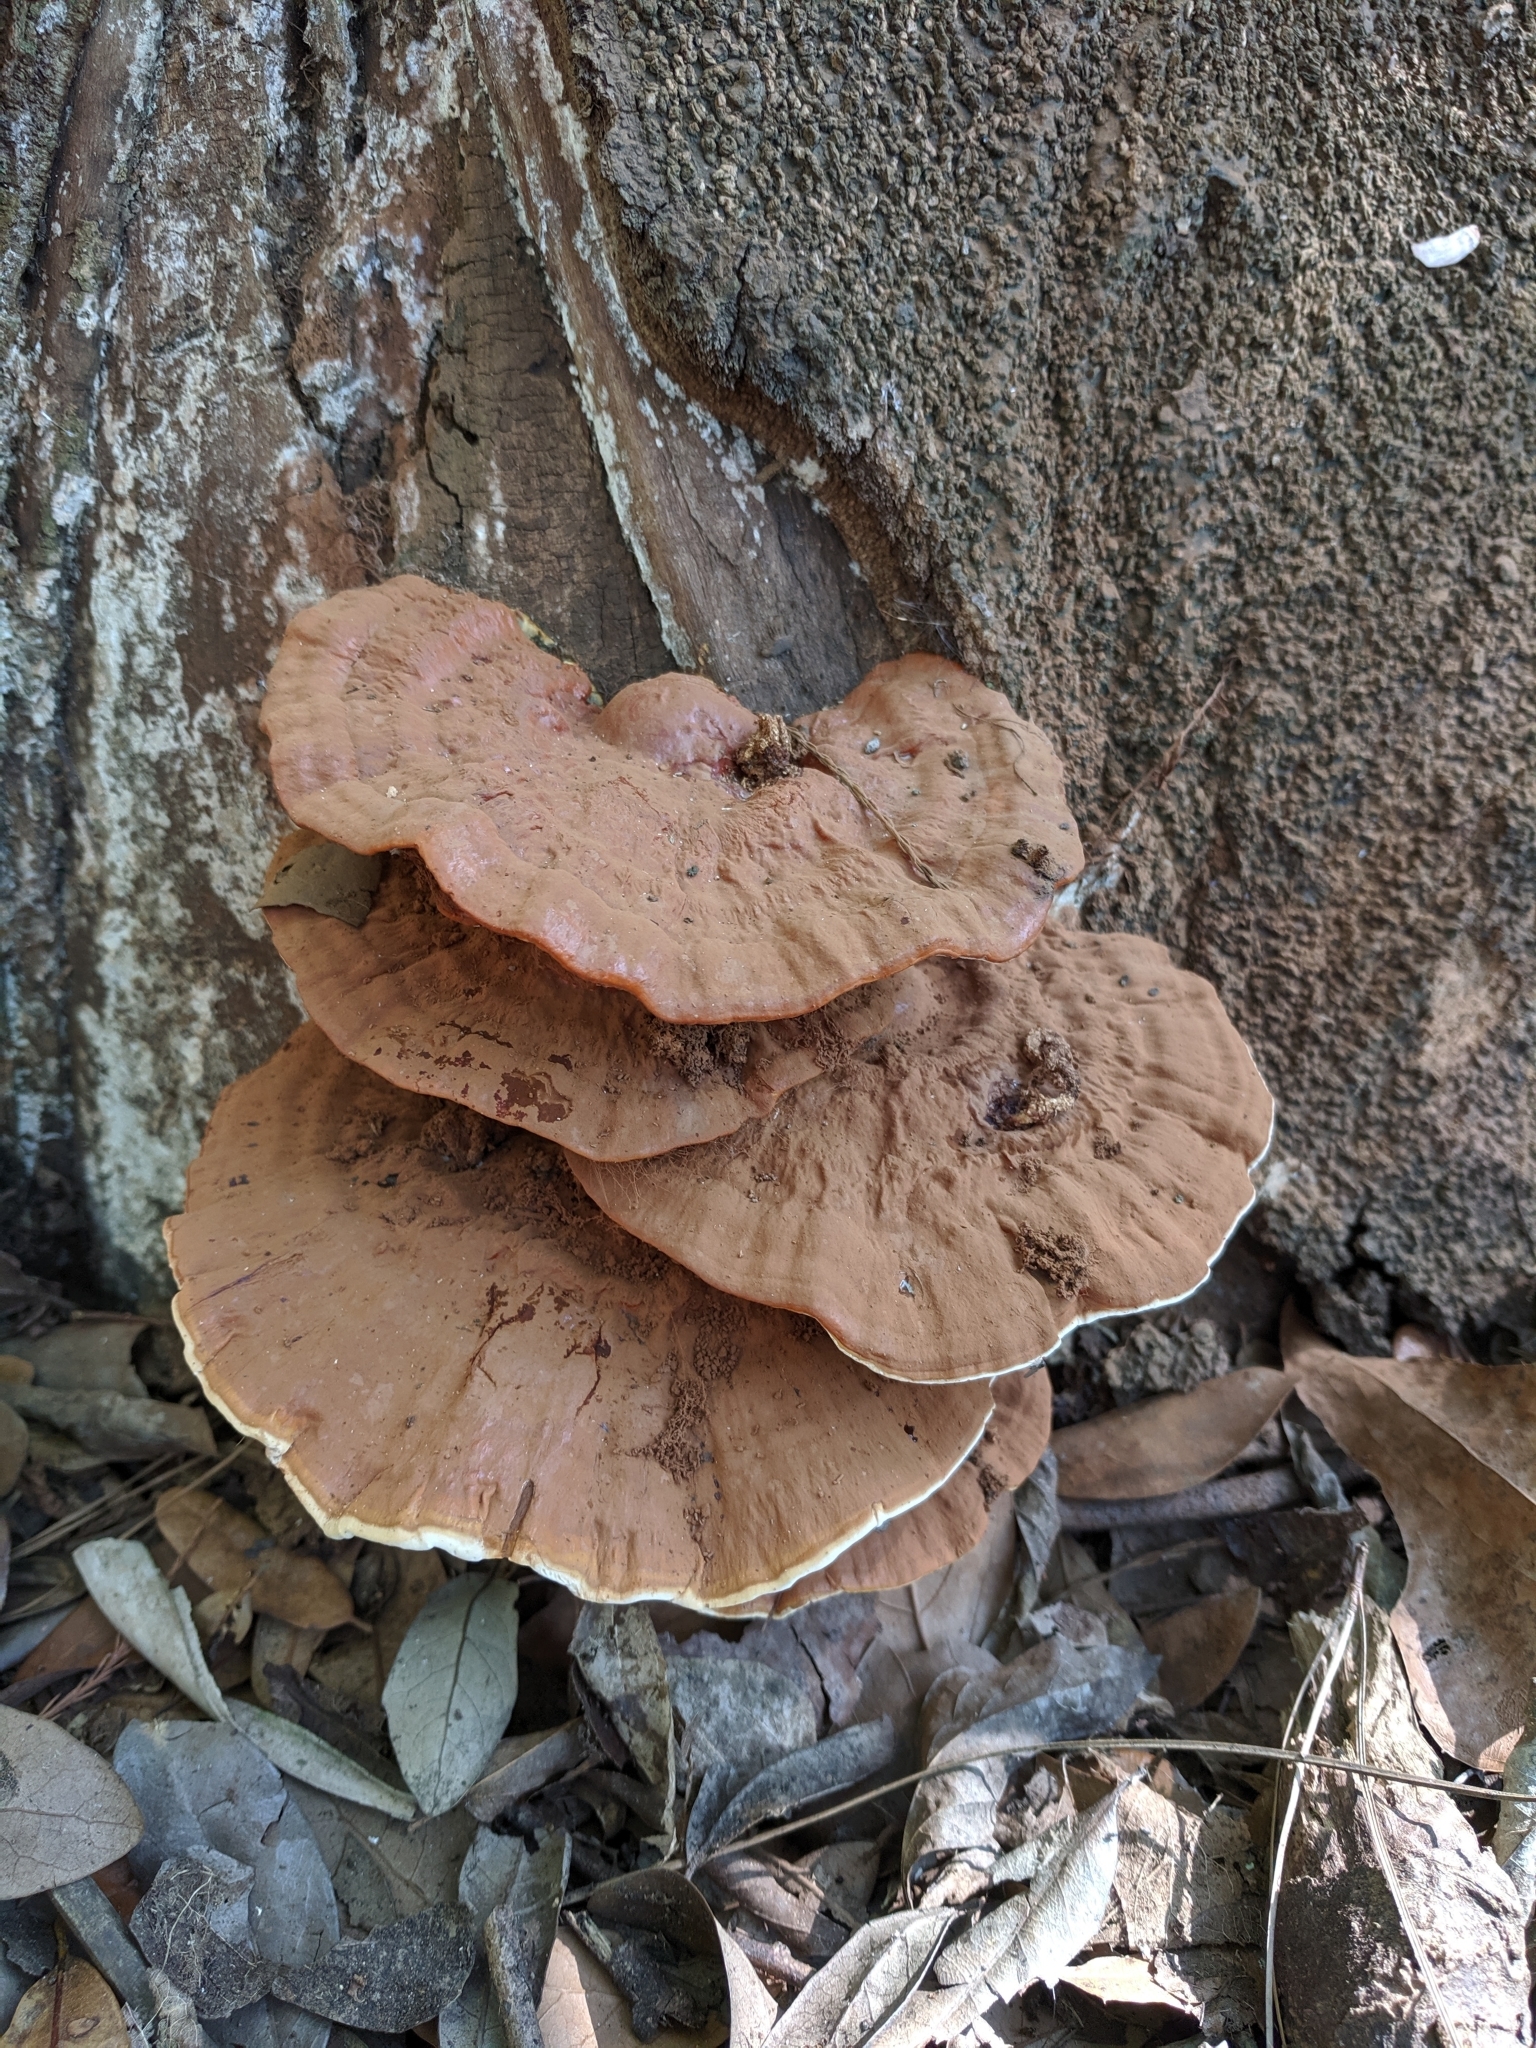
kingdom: Fungi
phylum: Basidiomycota
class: Agaricomycetes
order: Polyporales
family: Polyporaceae
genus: Ganoderma
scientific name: Ganoderma resinaceum
